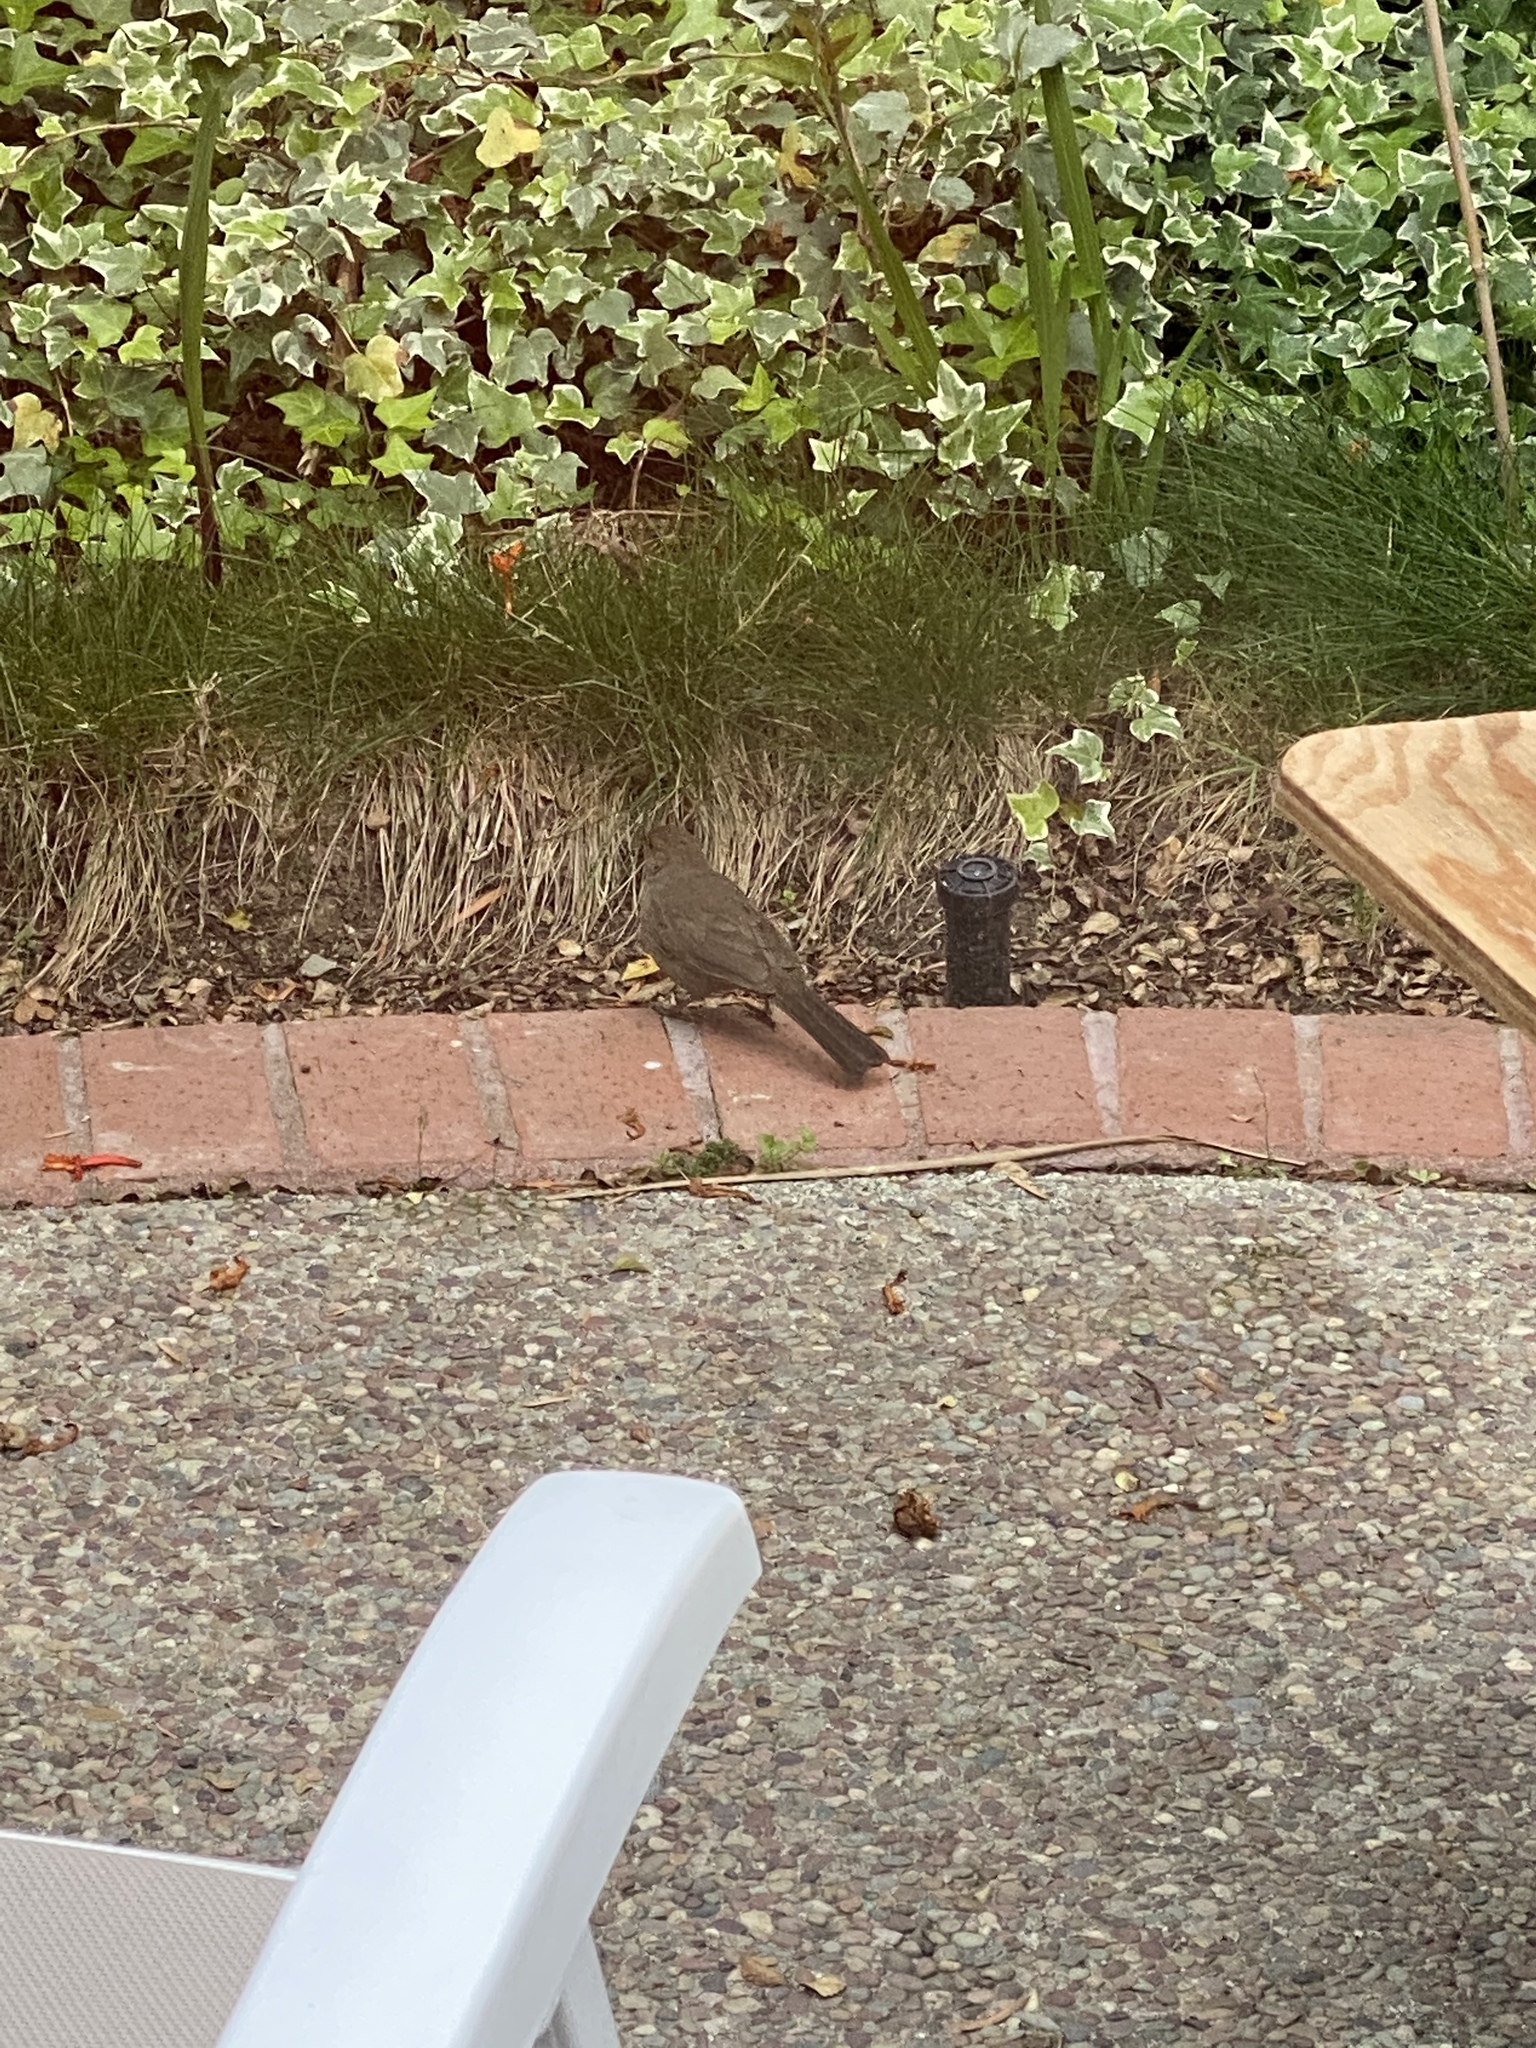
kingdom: Animalia
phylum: Chordata
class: Aves
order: Passeriformes
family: Passerellidae
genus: Melozone
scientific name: Melozone crissalis
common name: California towhee
